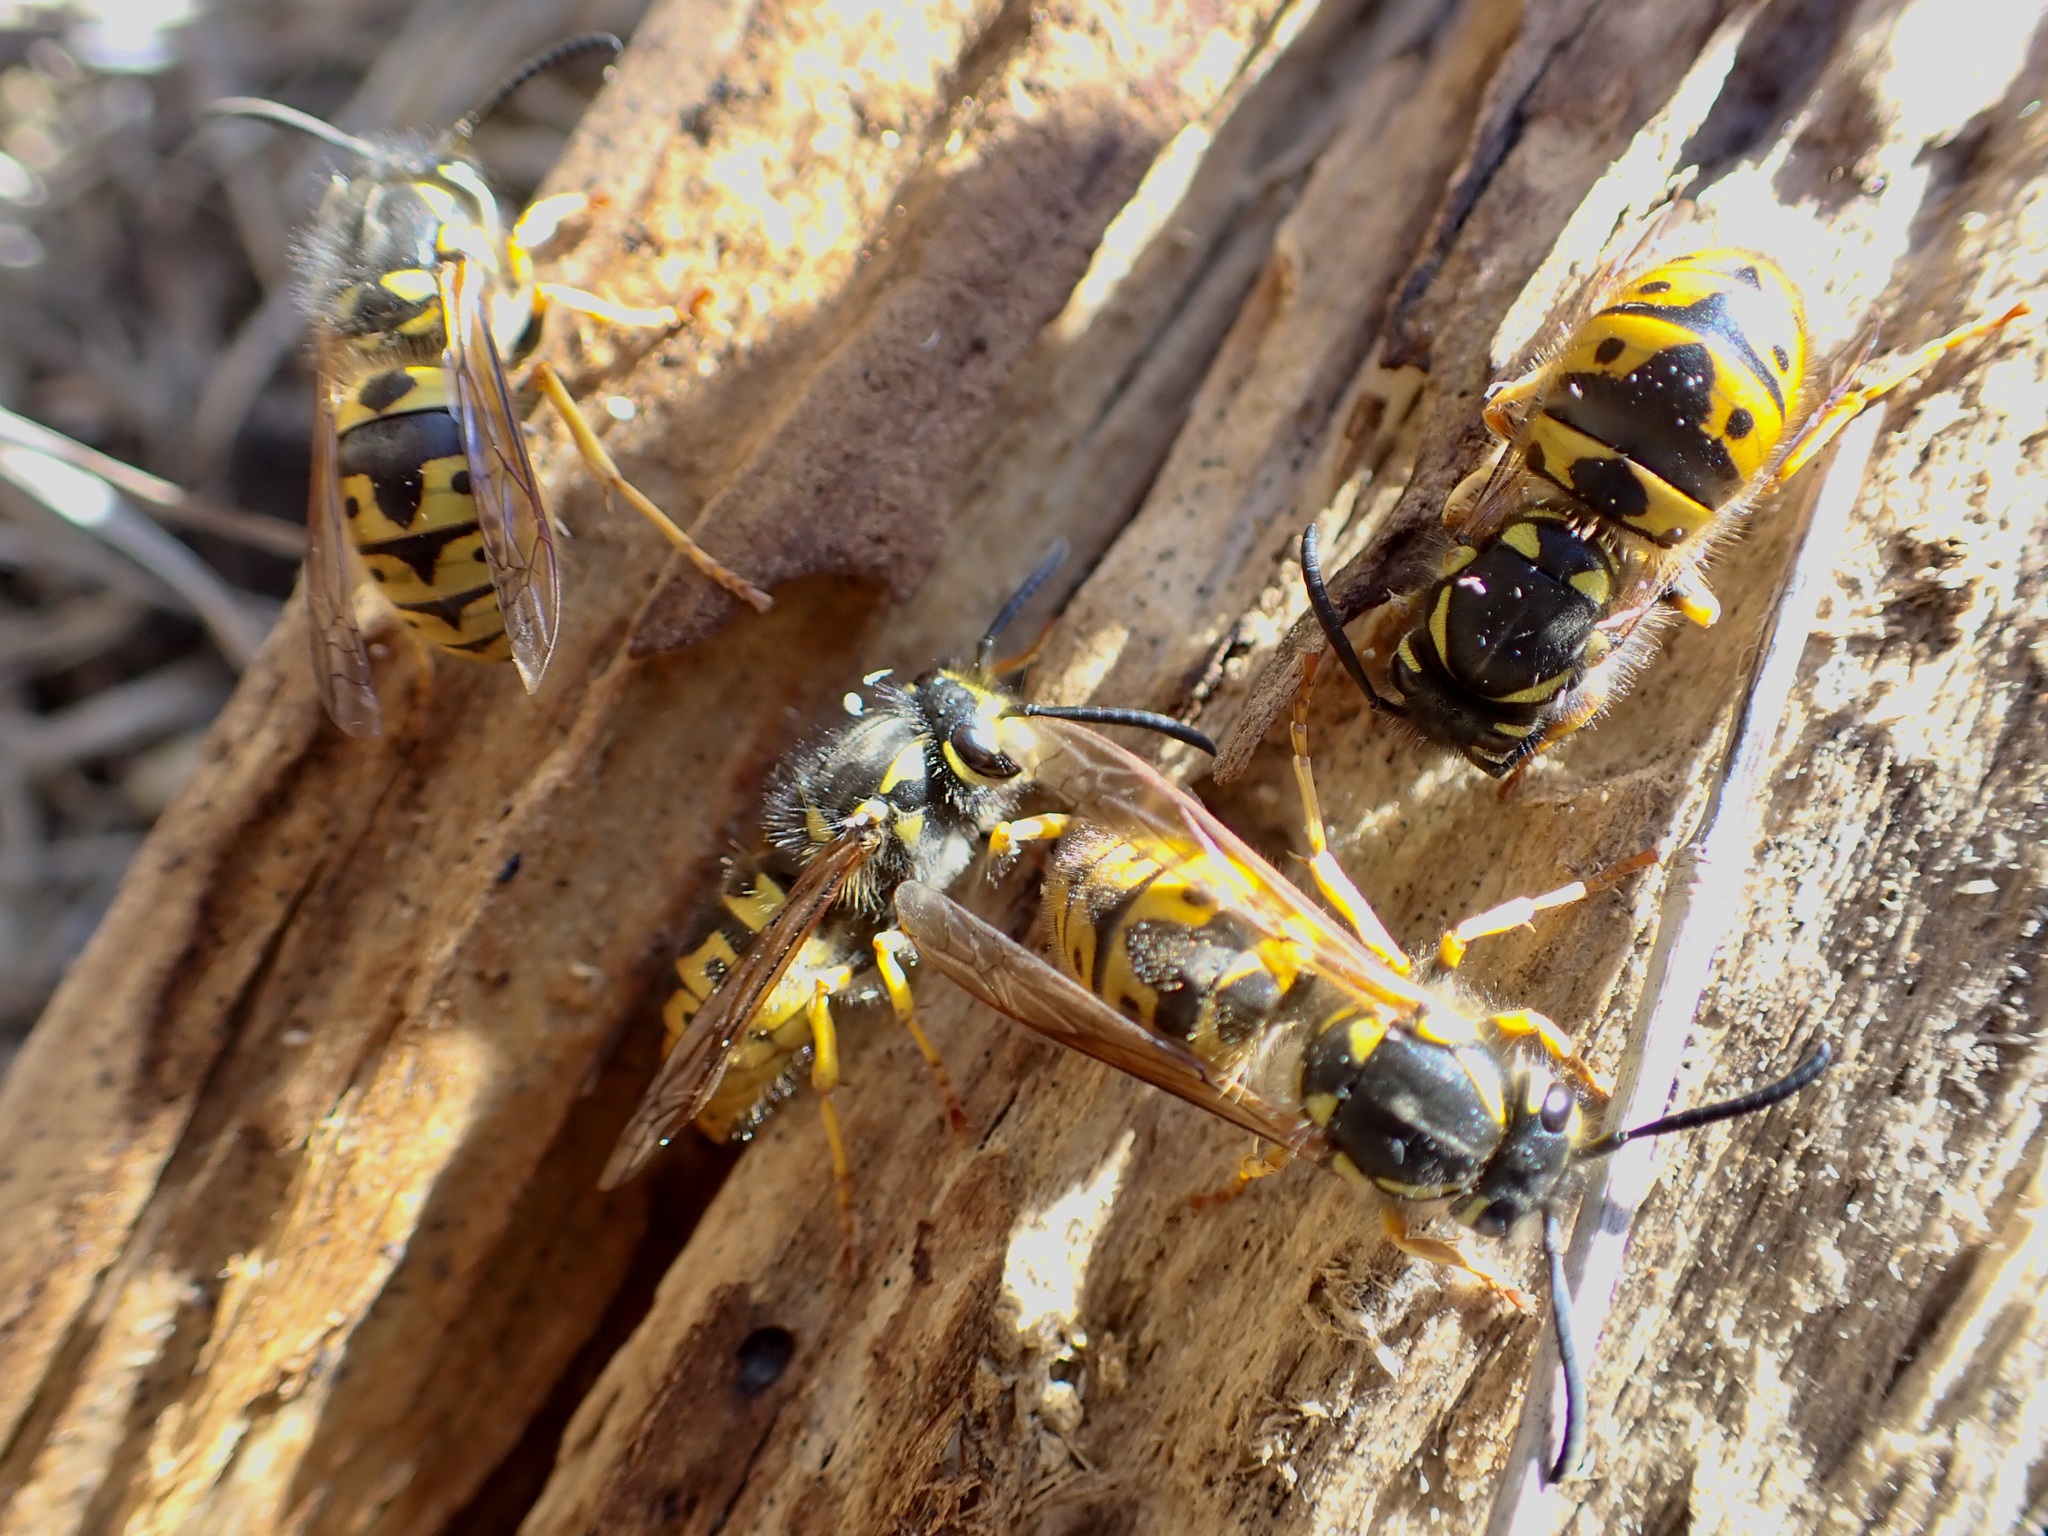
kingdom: Animalia
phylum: Arthropoda
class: Insecta
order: Hymenoptera
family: Vespidae
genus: Vespula
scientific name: Vespula germanica
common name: German wasp
